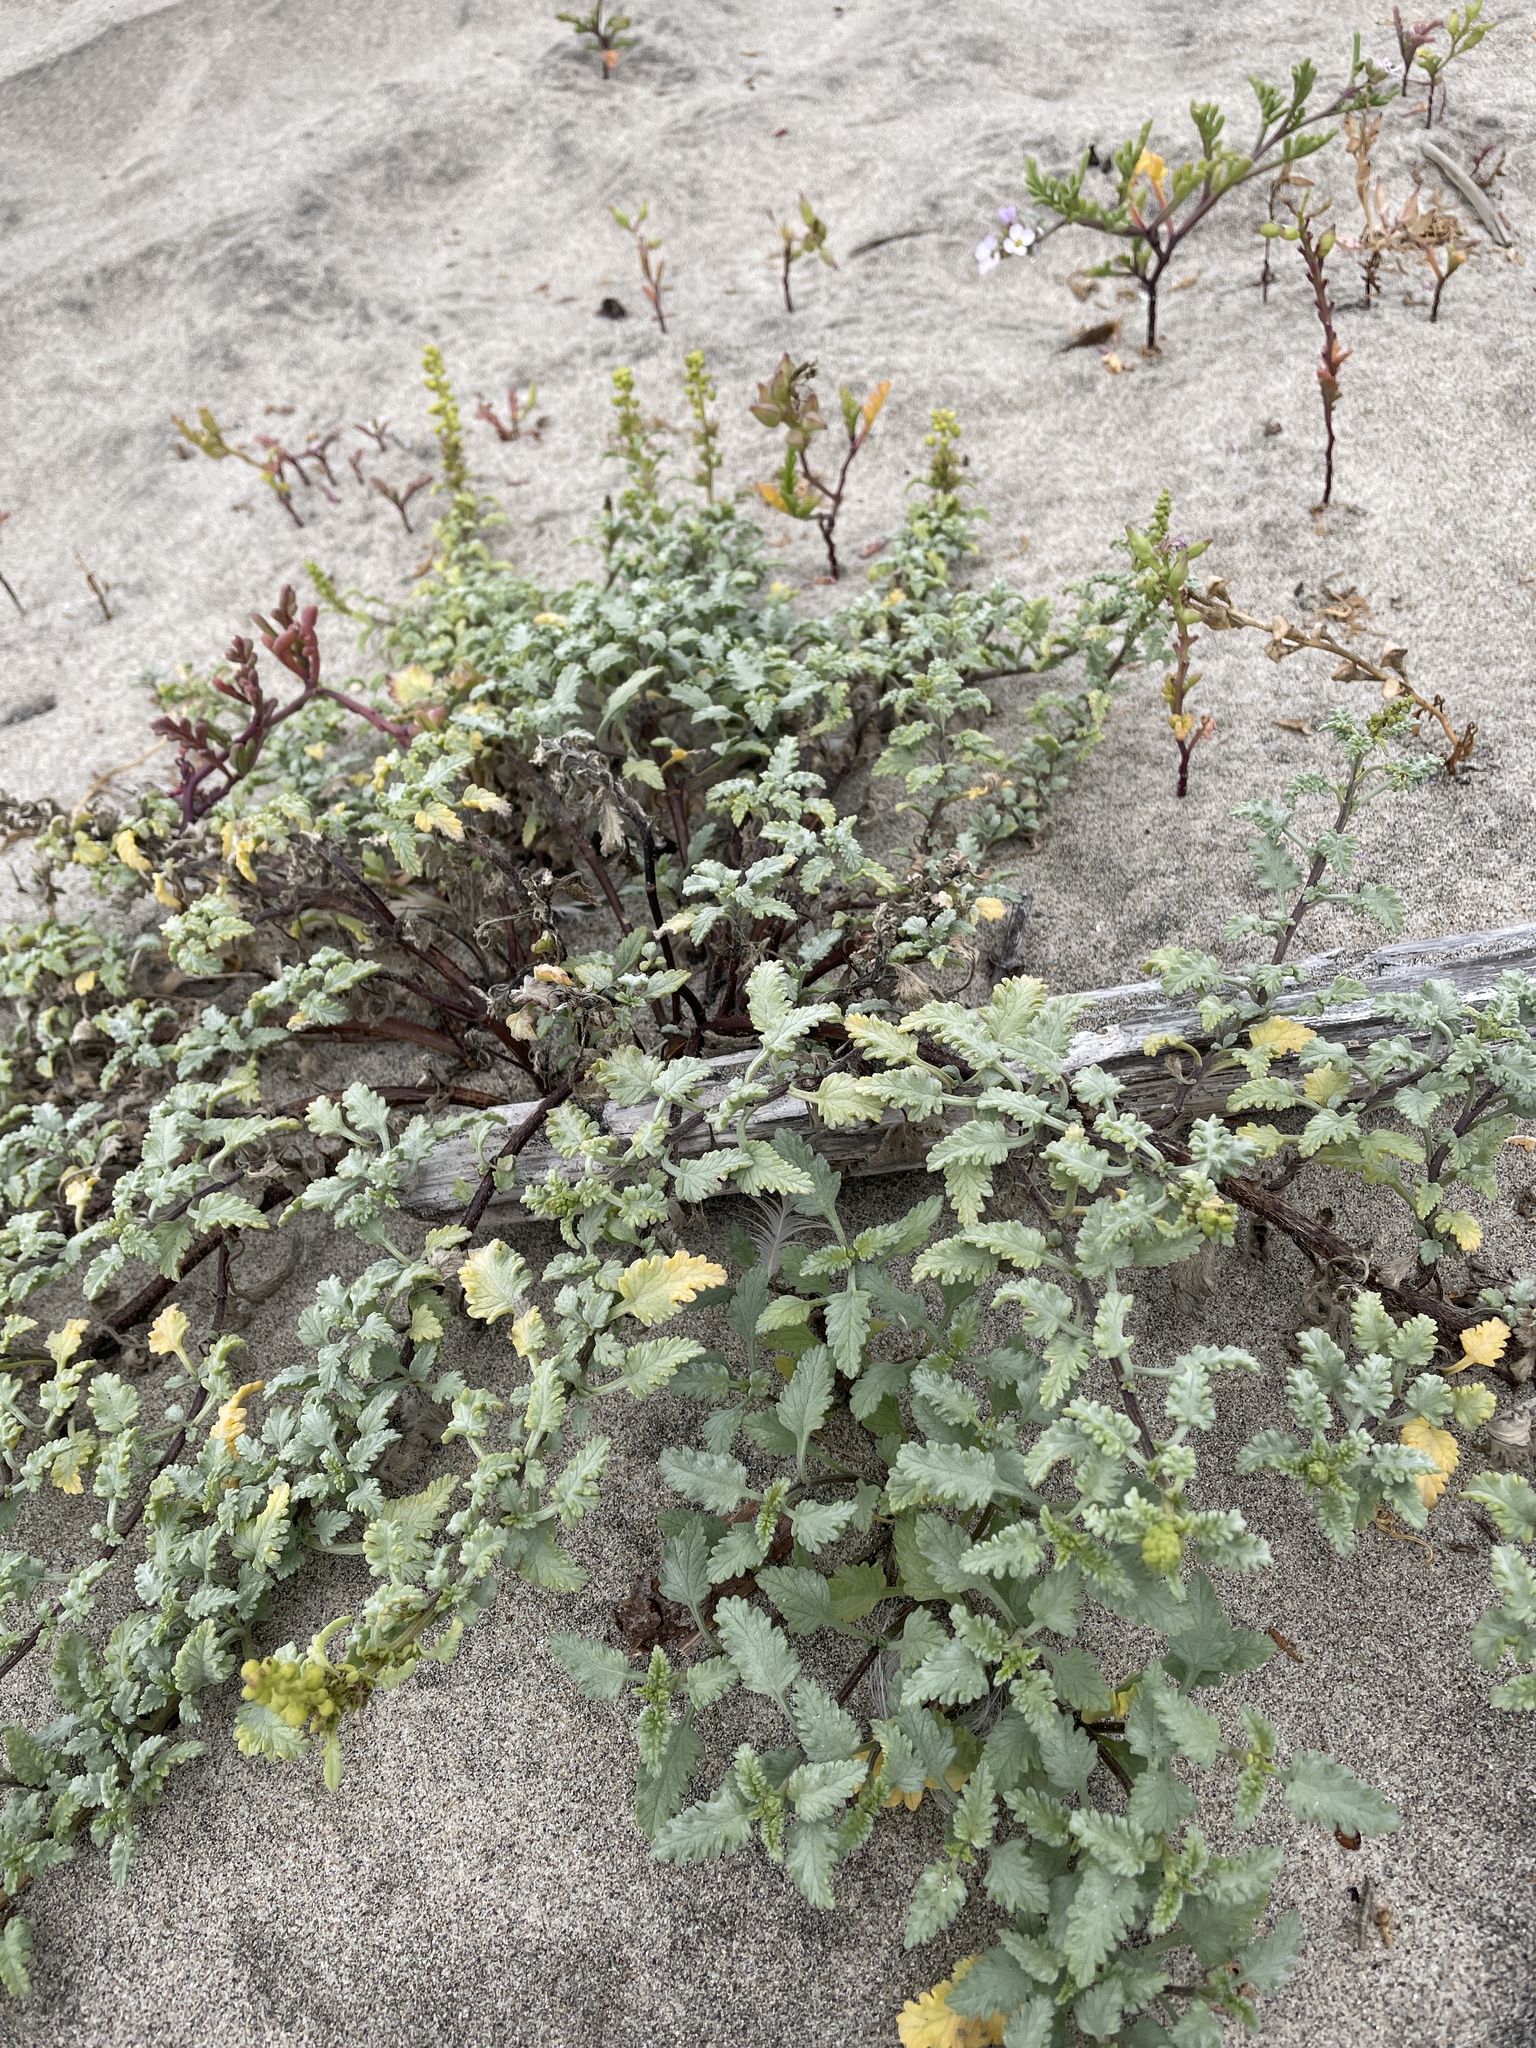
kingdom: Plantae
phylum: Tracheophyta
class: Magnoliopsida
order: Asterales
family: Asteraceae
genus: Ambrosia
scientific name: Ambrosia chamissonis
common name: Beachbur
